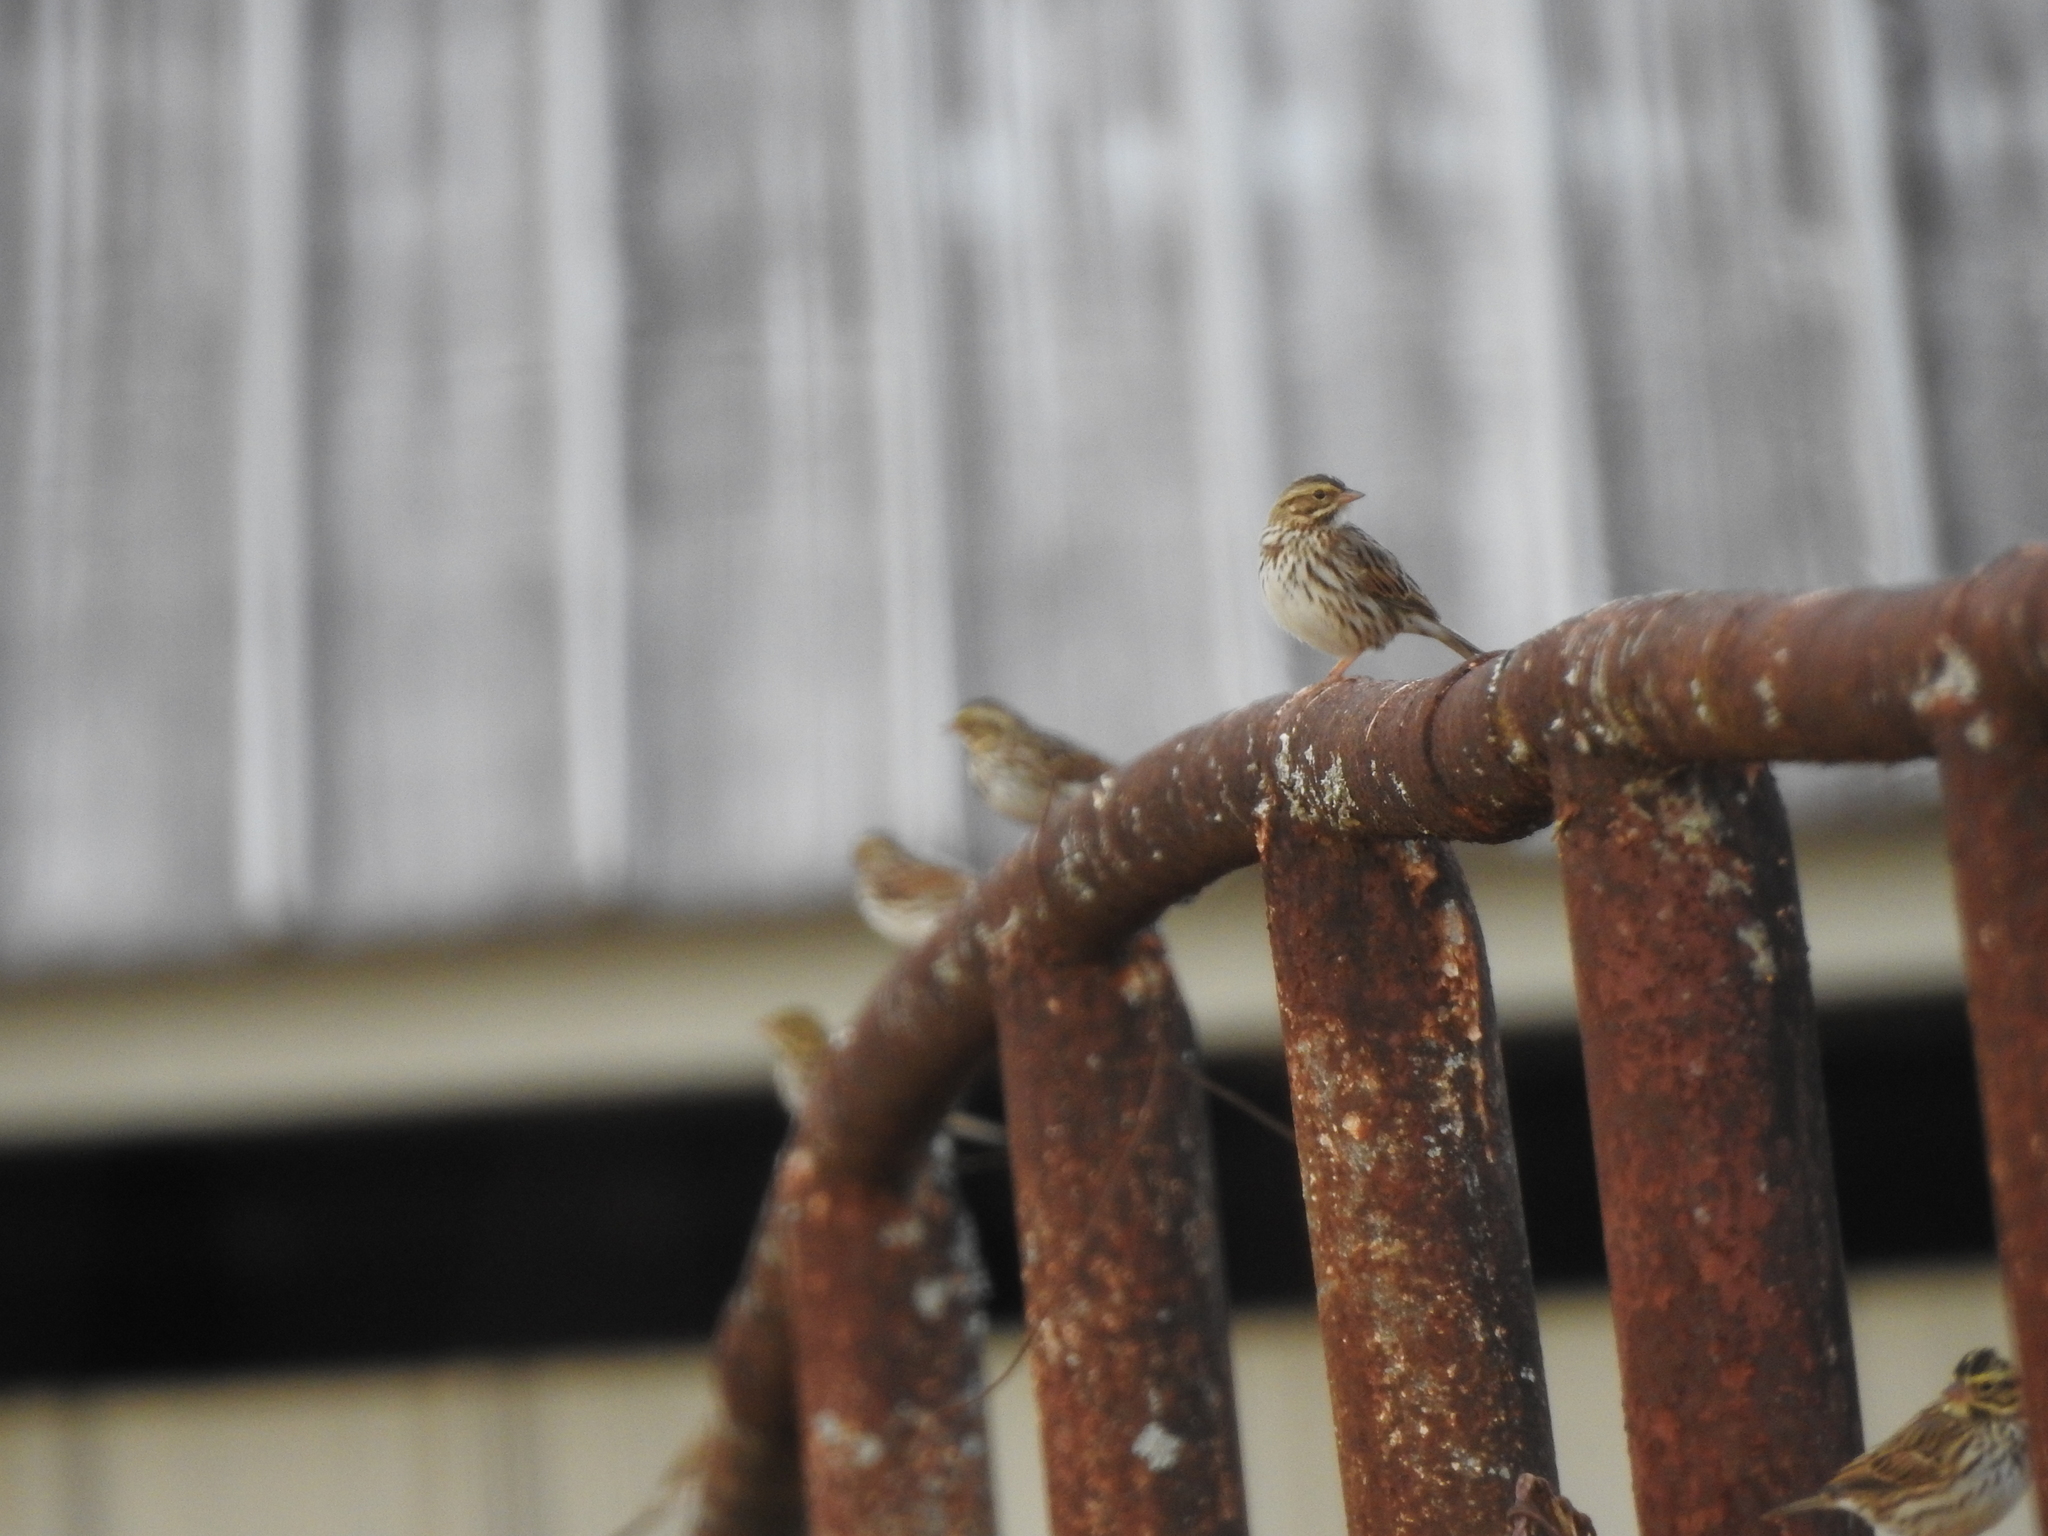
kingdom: Animalia
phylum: Chordata
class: Aves
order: Passeriformes
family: Passerellidae
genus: Passerculus
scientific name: Passerculus sandwichensis
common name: Savannah sparrow
